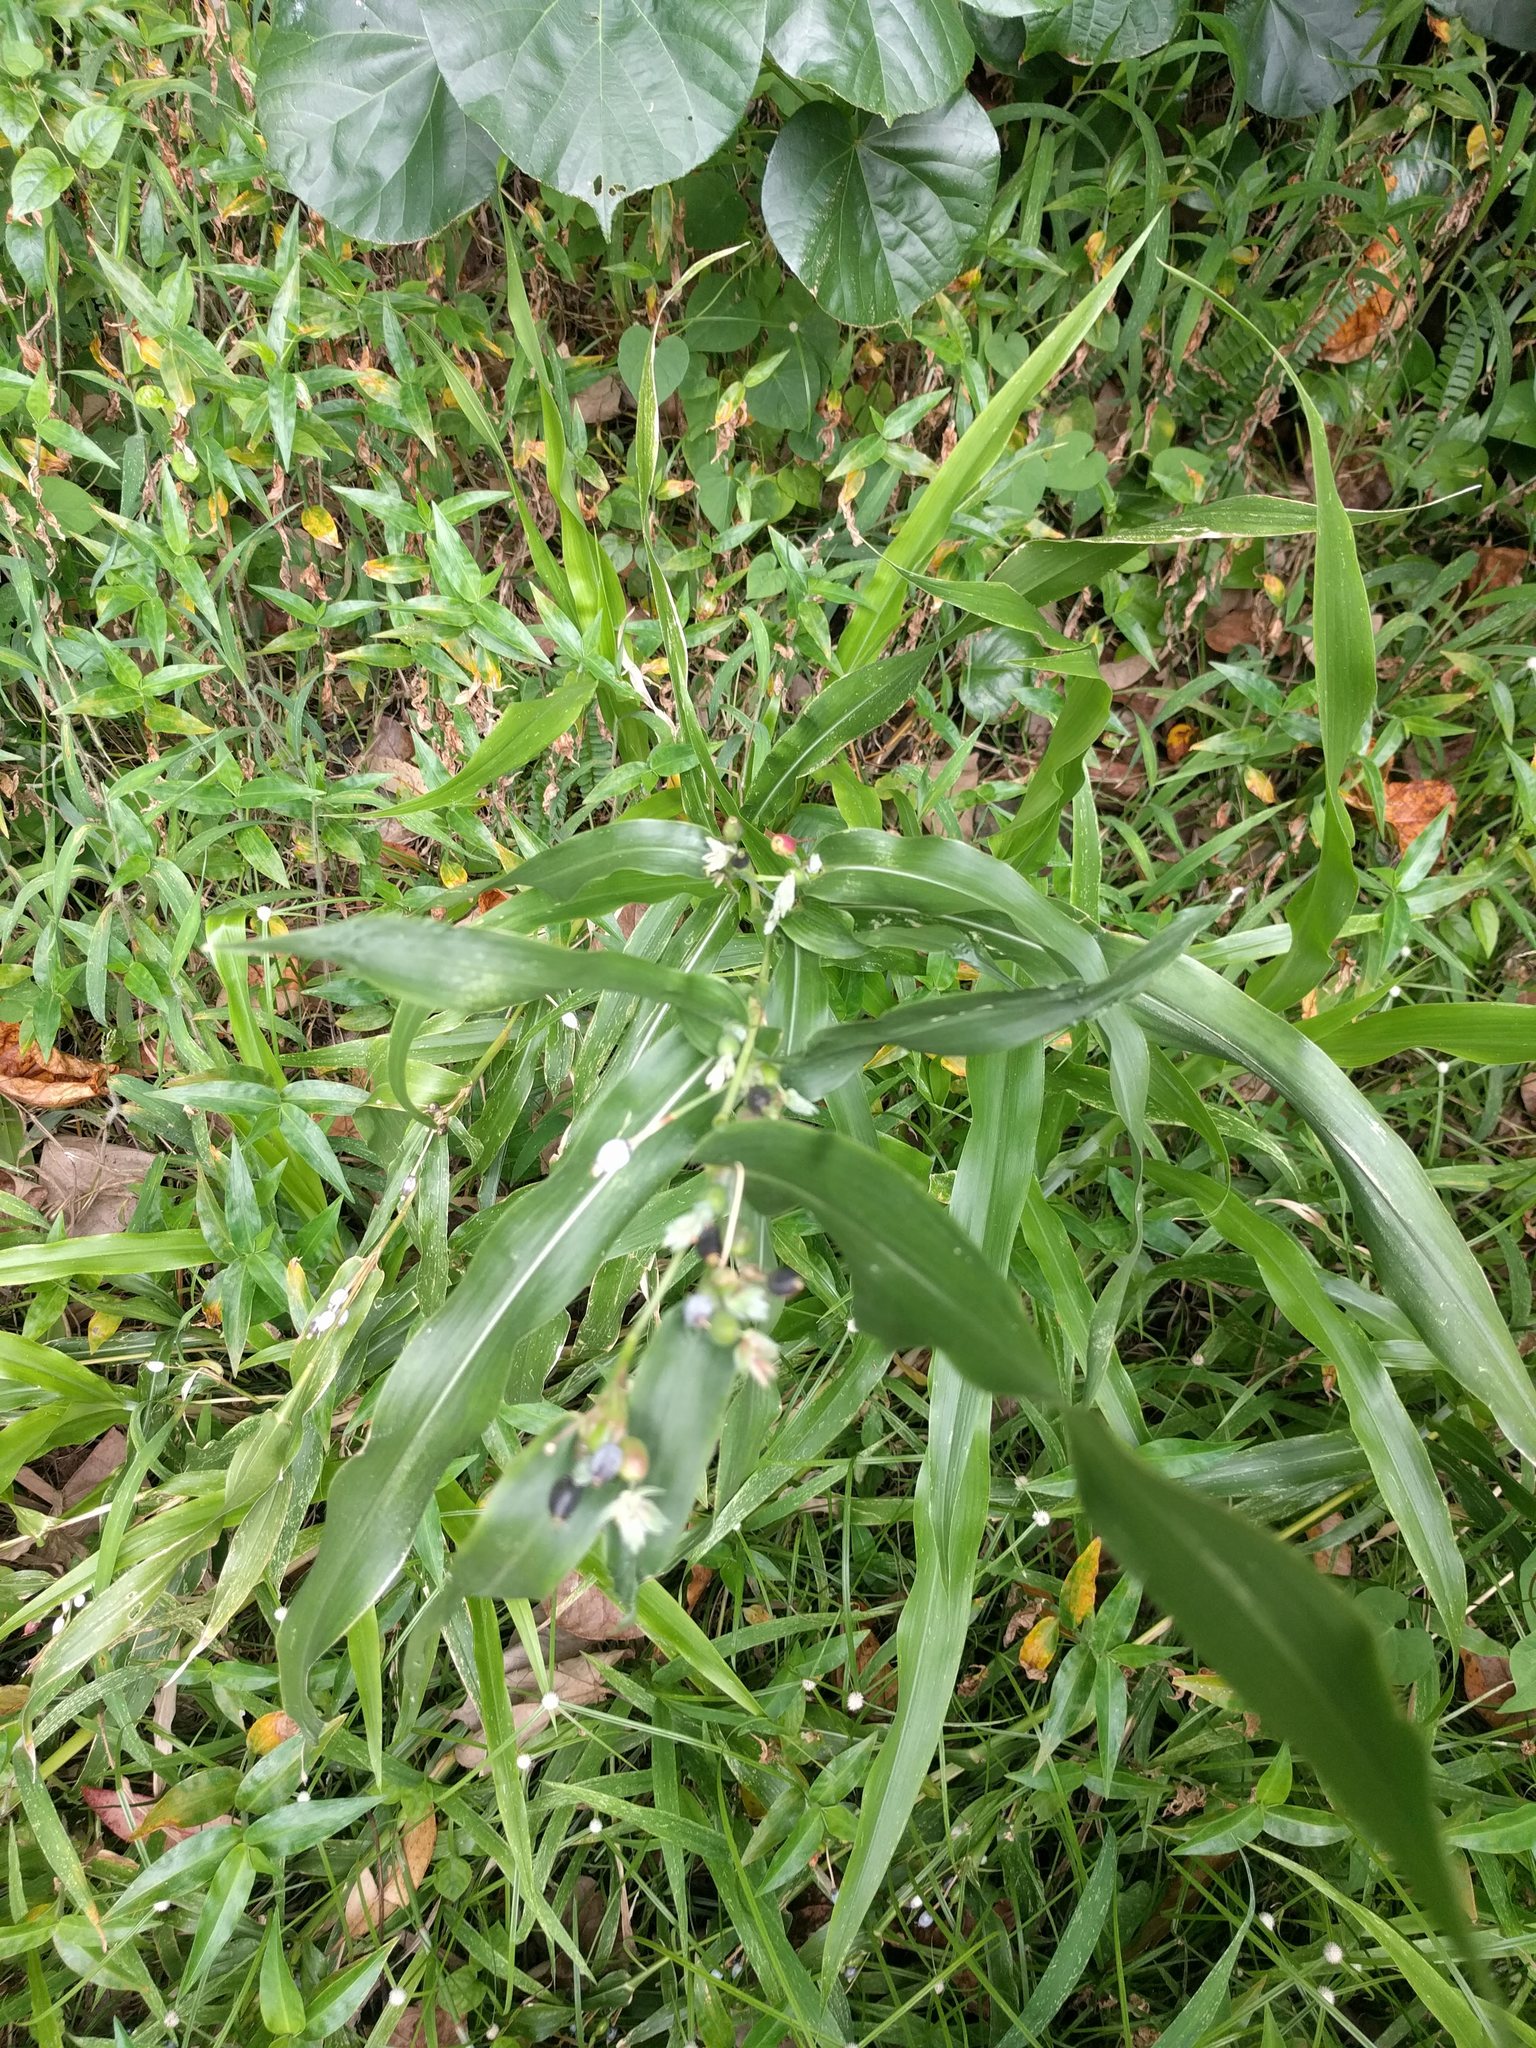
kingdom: Plantae
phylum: Tracheophyta
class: Liliopsida
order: Poales
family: Poaceae
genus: Coix
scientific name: Coix lacryma-jobi
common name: Job's tears
